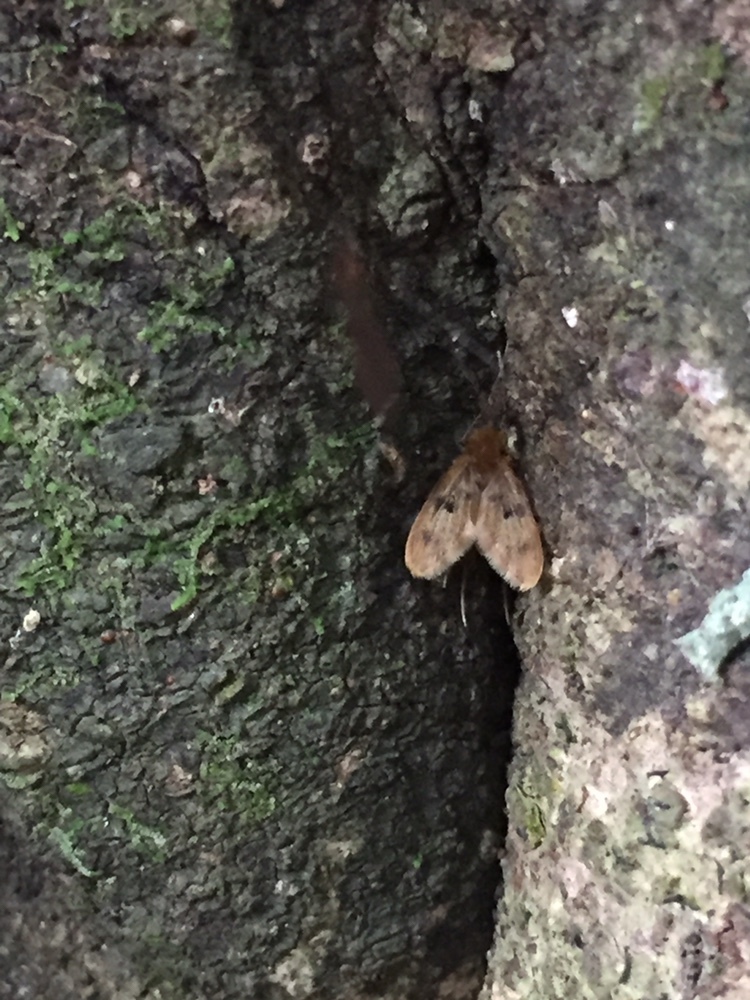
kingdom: Animalia
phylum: Arthropoda
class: Insecta
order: Diptera
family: Psychodidae
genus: Notofairchildia
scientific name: Notofairchildia zelandiae
